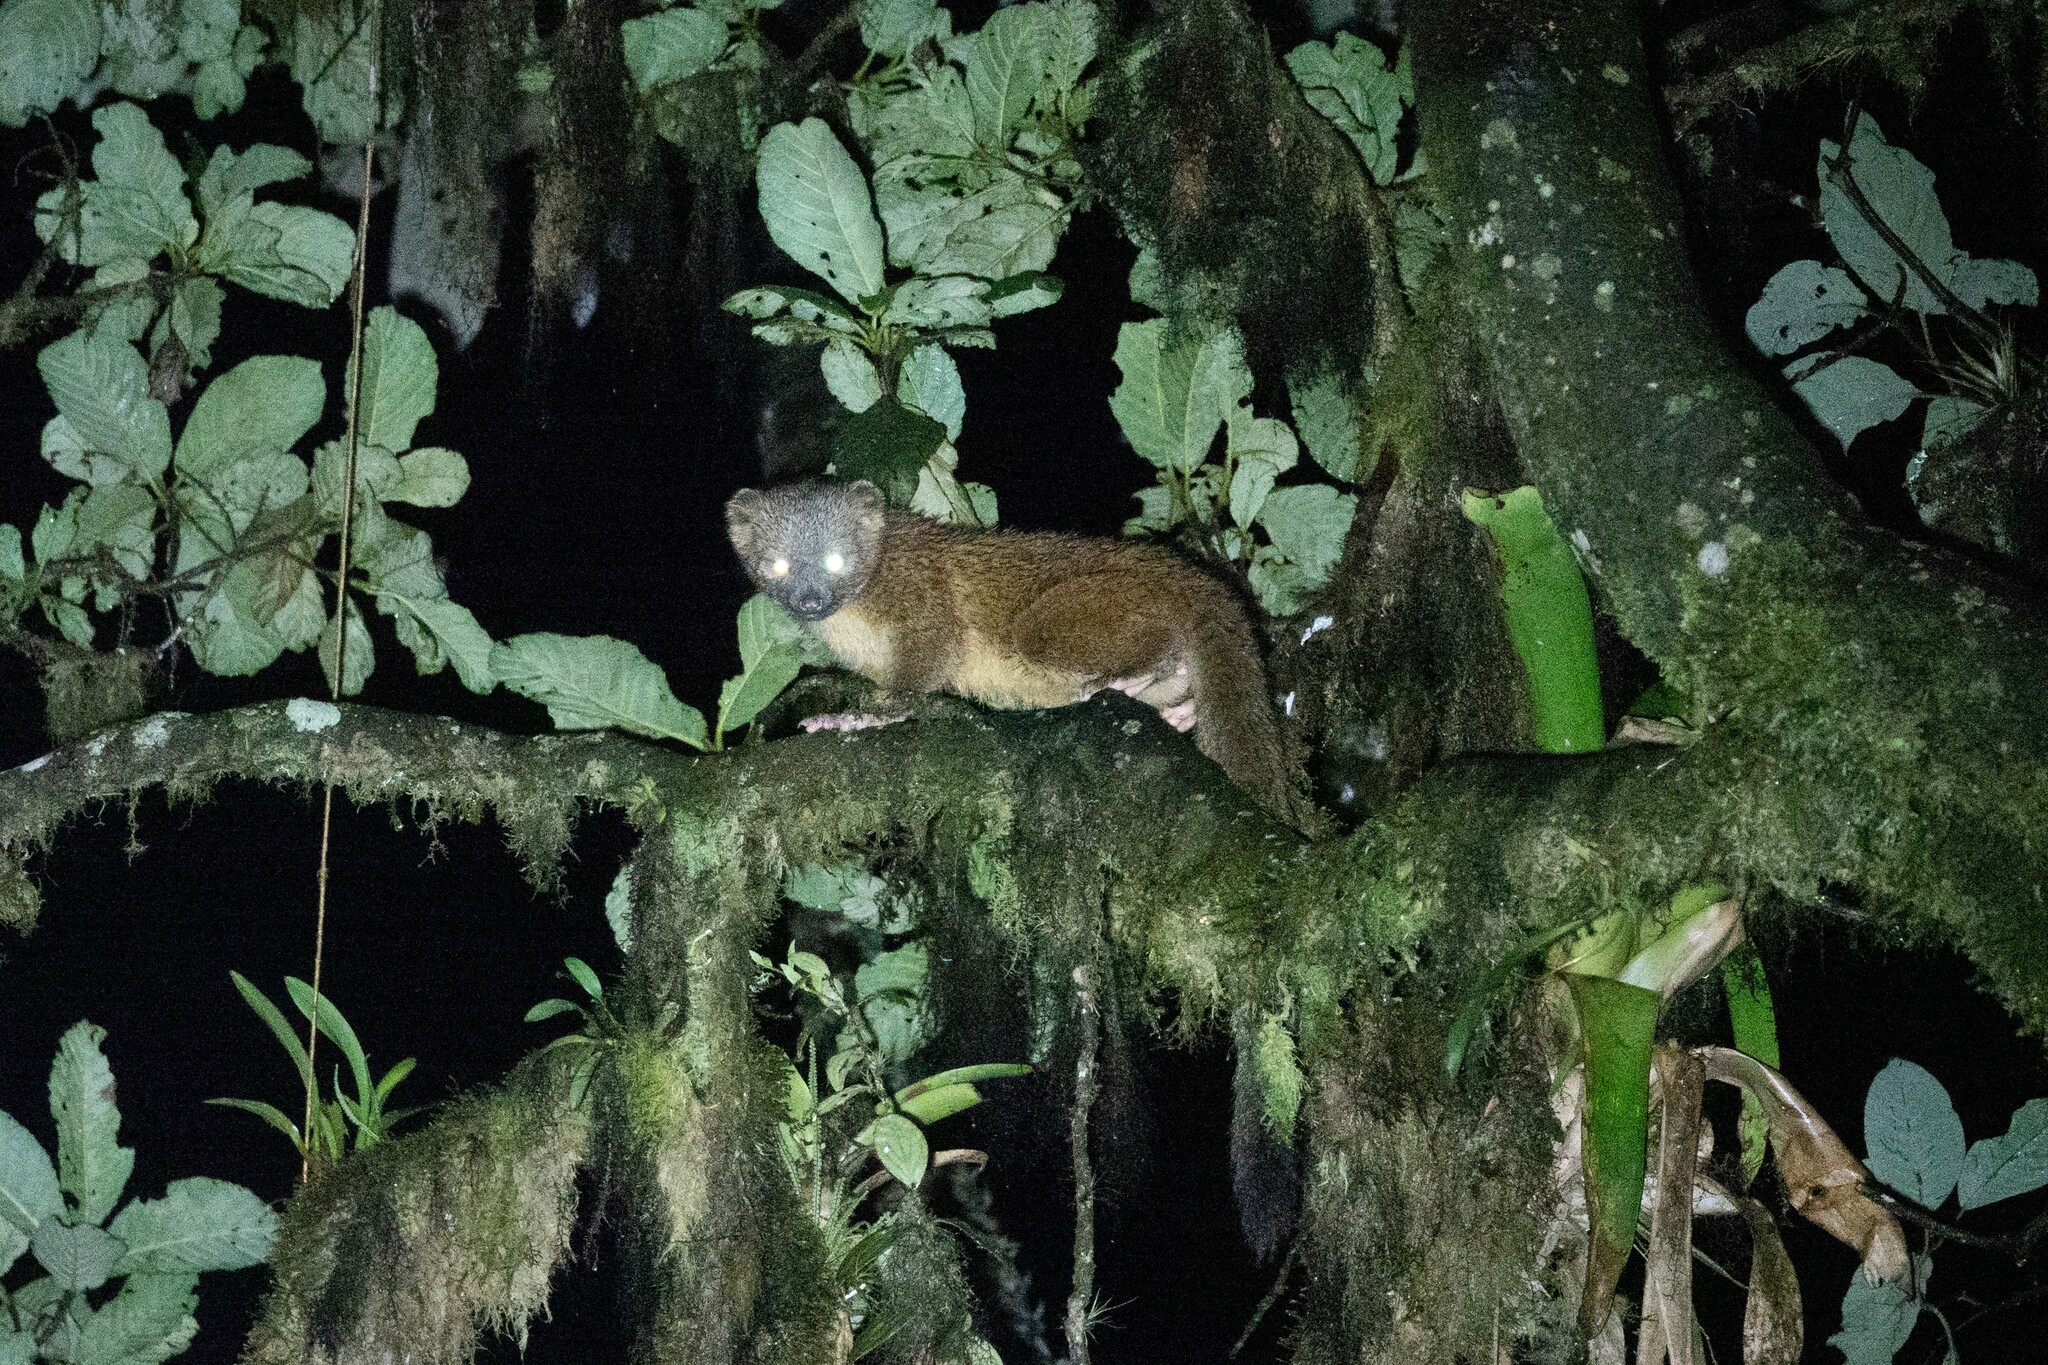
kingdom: Animalia
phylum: Chordata
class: Mammalia
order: Carnivora
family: Procyonidae
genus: Bassaricyon
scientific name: Bassaricyon neblina
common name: Olinguito
